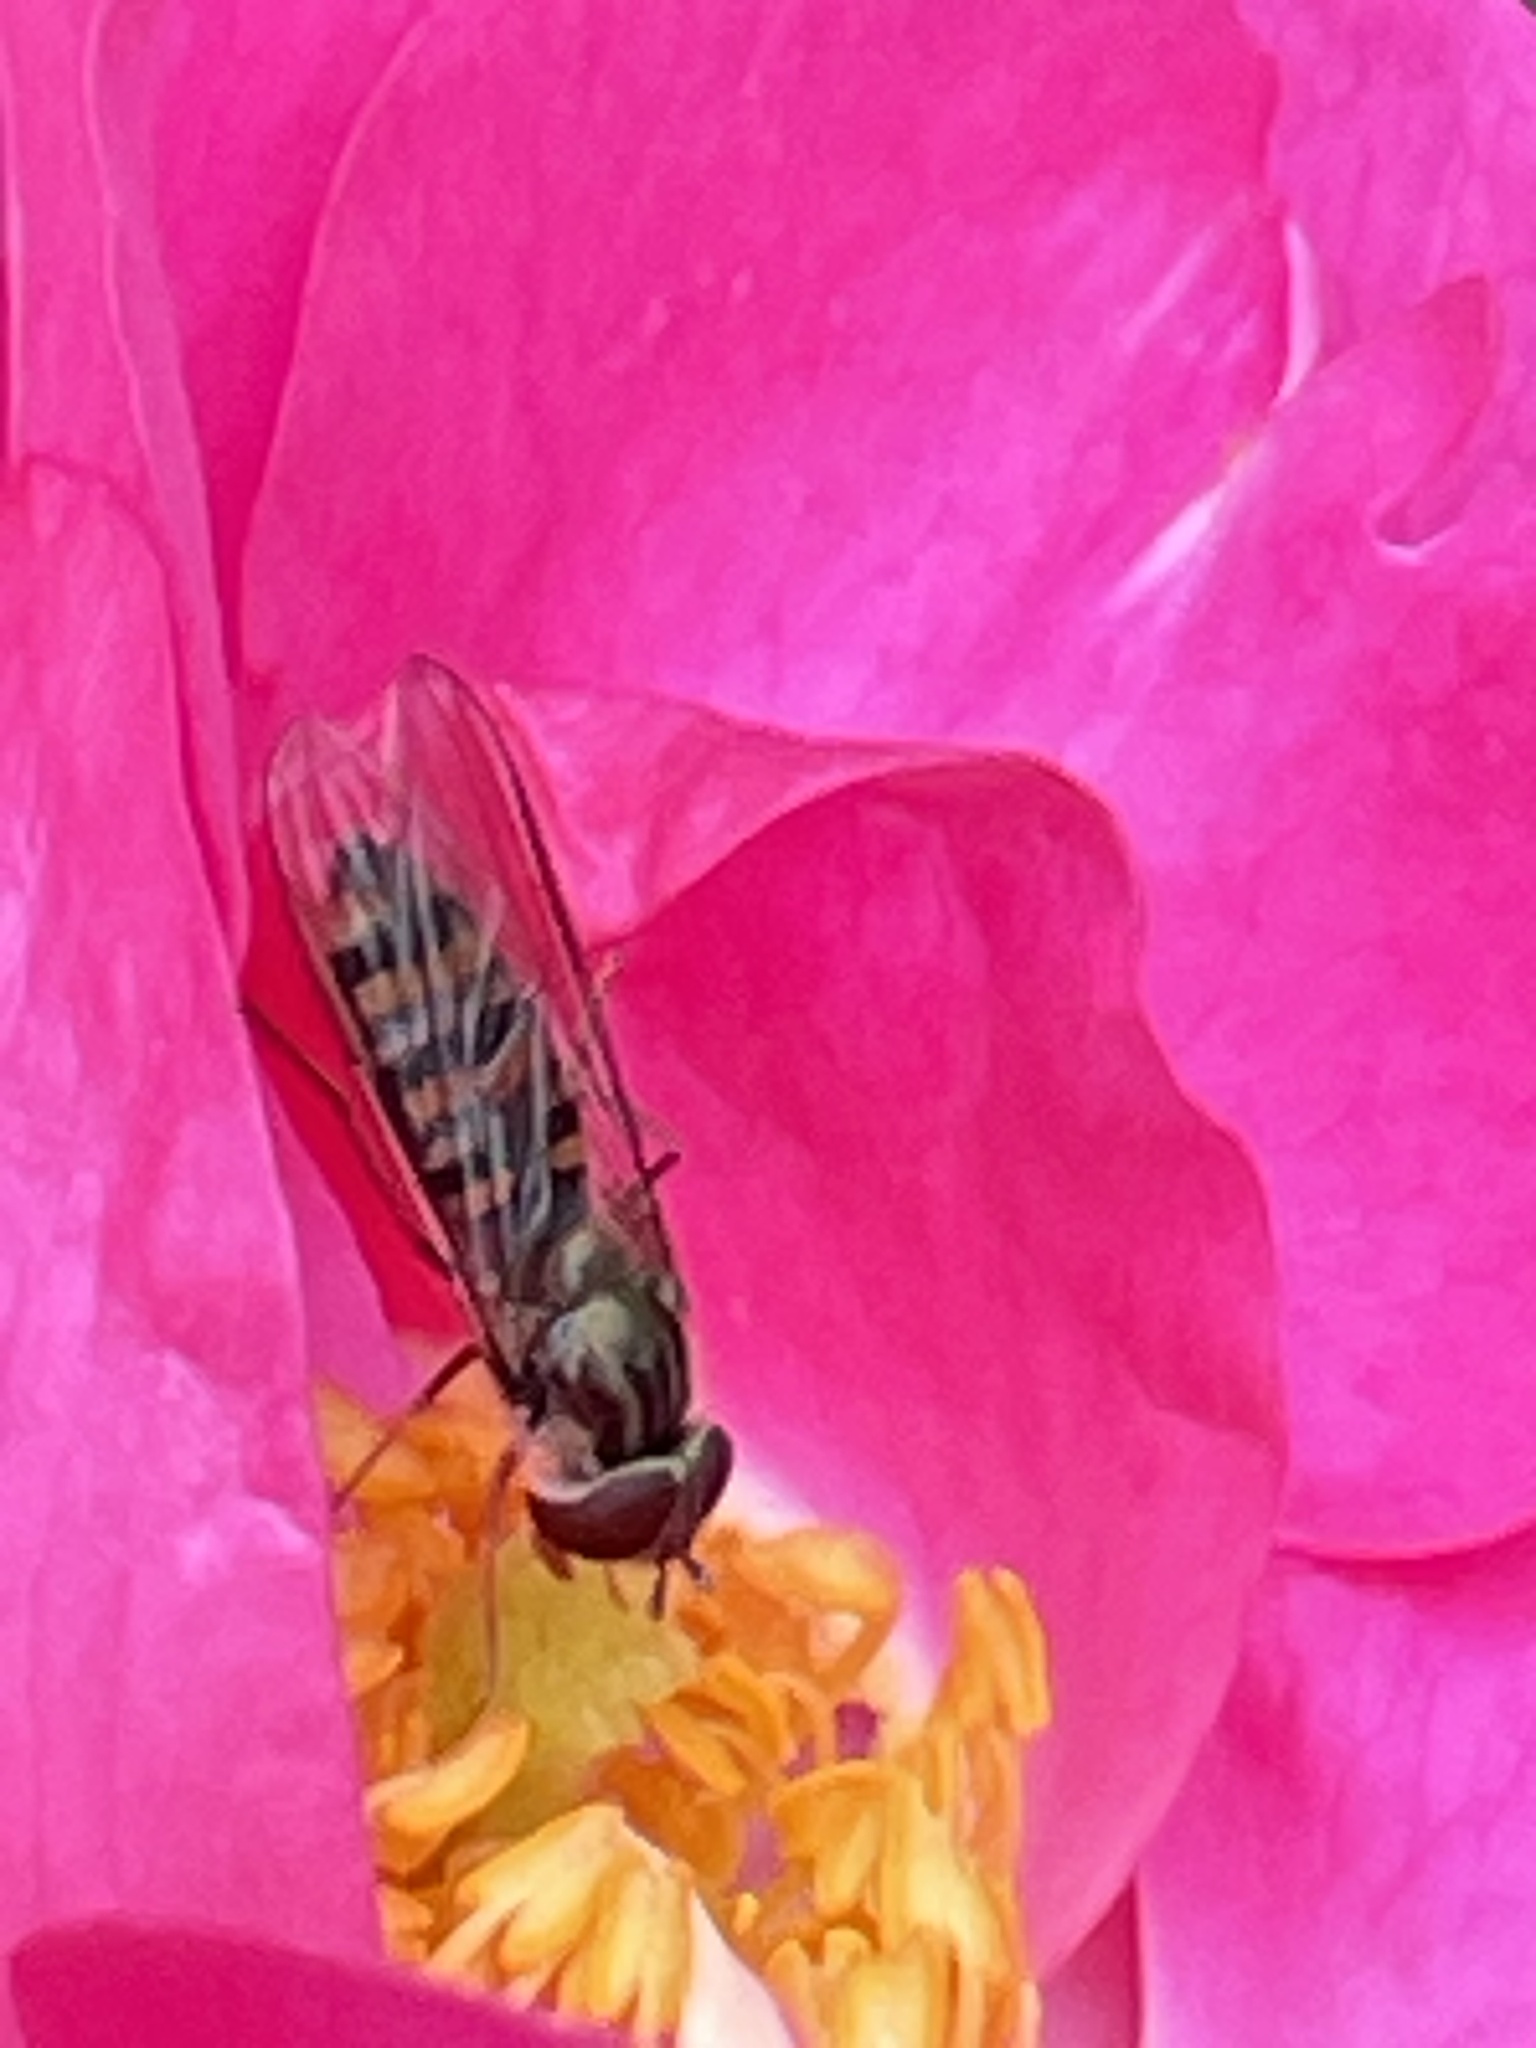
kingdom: Animalia
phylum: Arthropoda
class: Insecta
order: Diptera
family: Syrphidae
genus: Episyrphus
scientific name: Episyrphus balteatus
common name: Marmalade hoverfly
